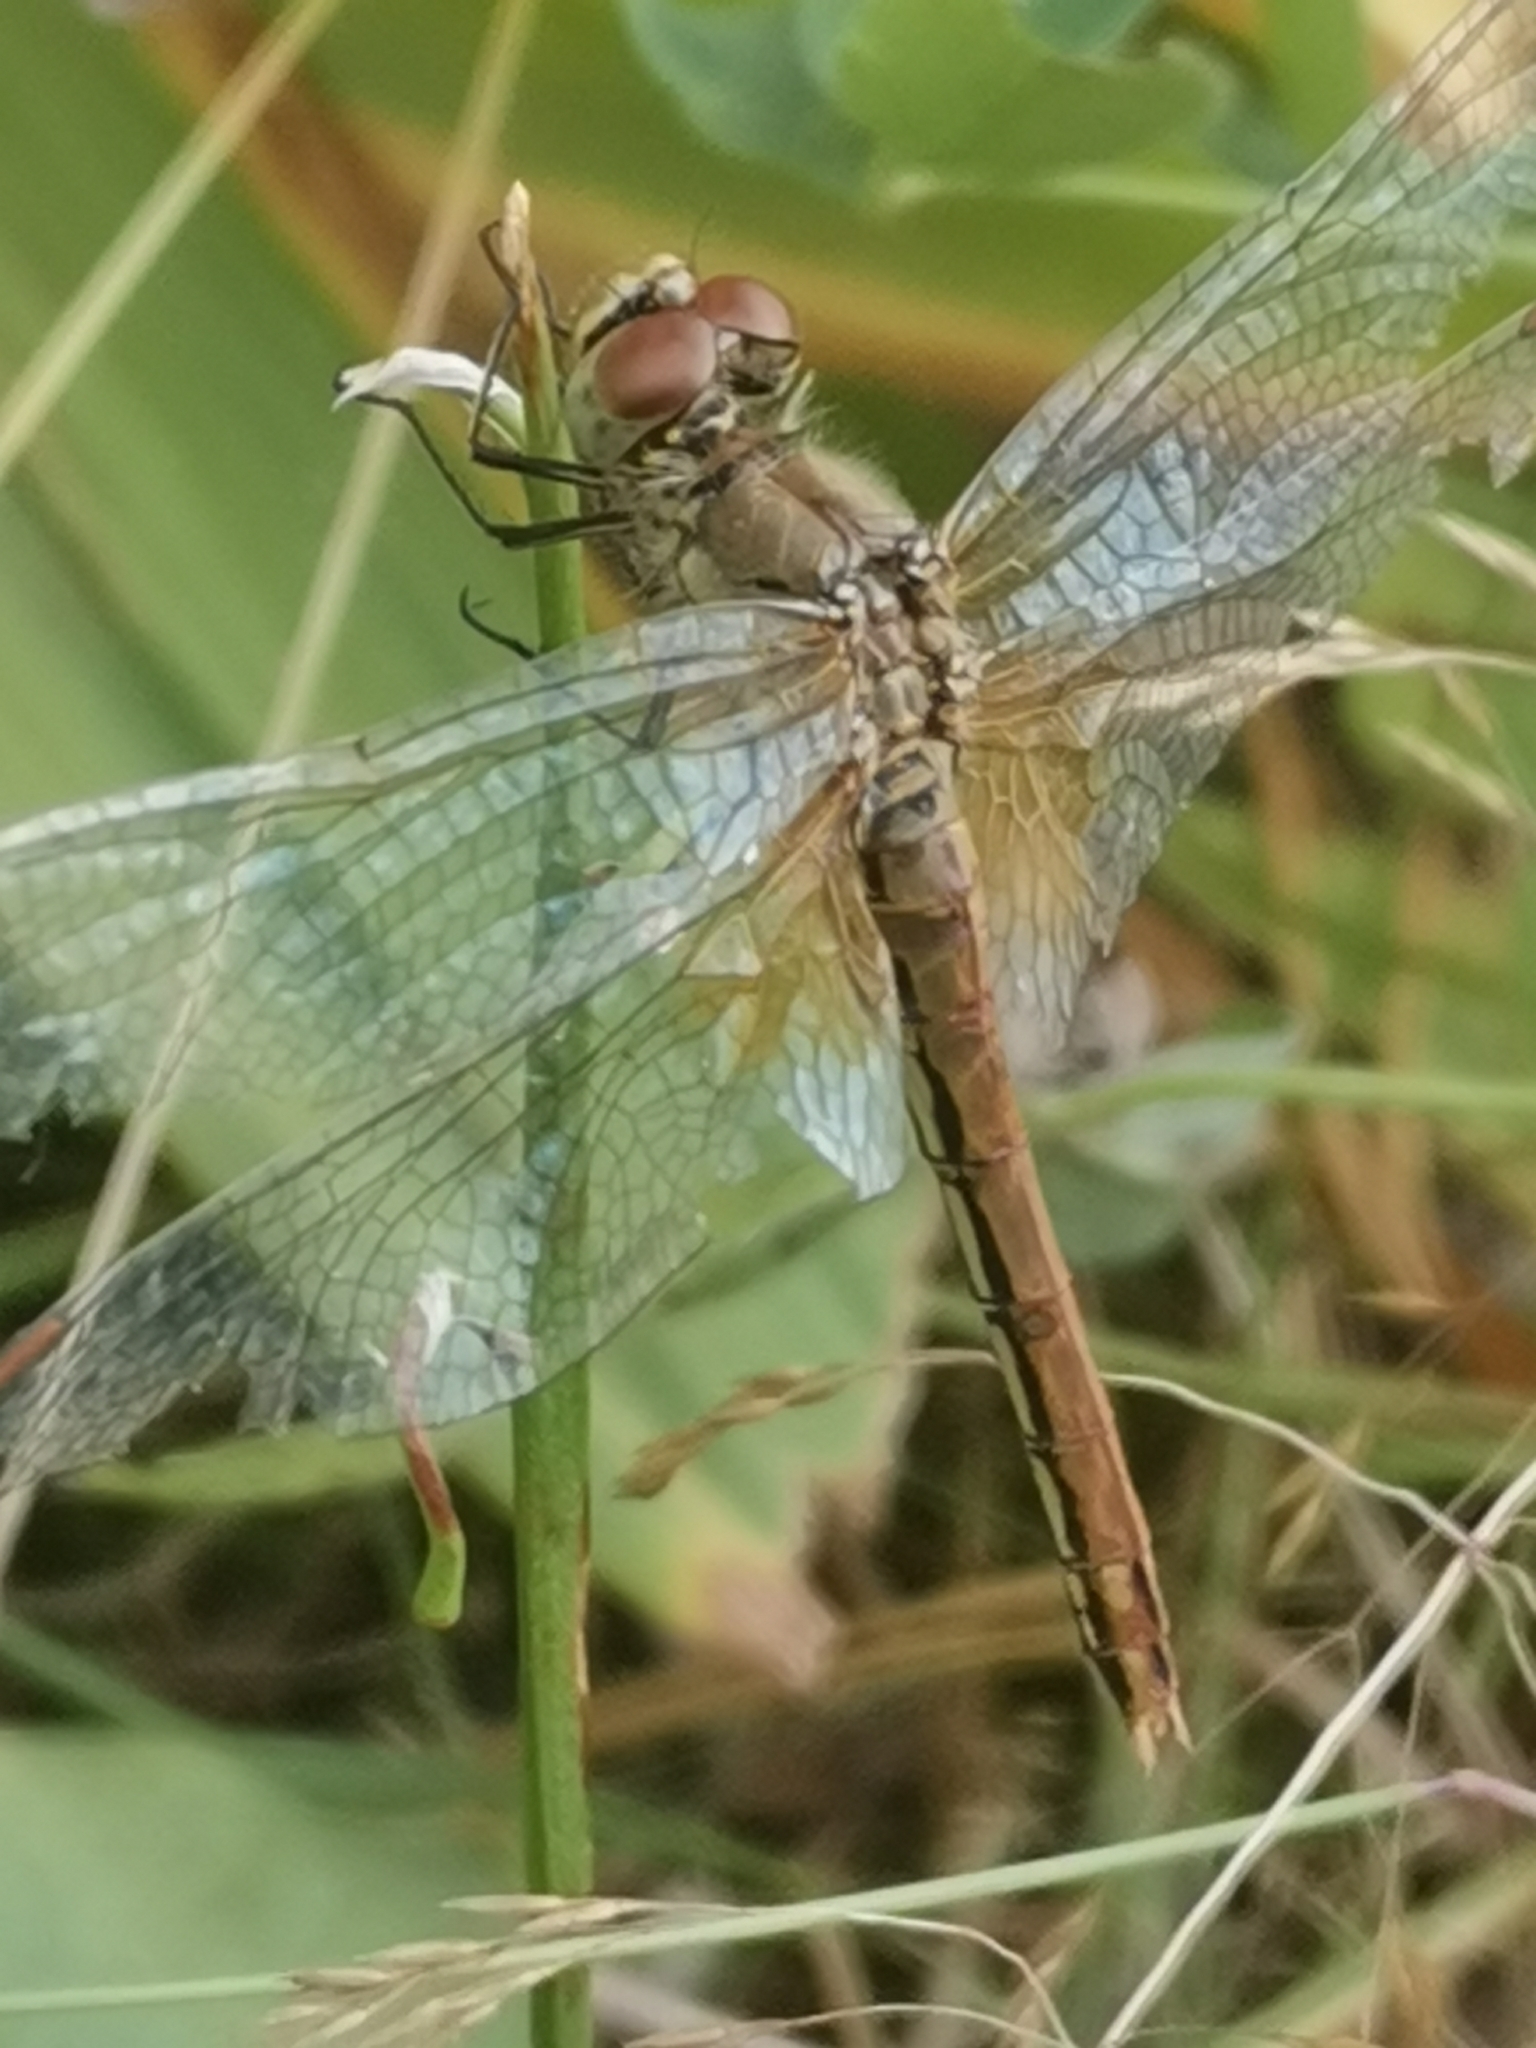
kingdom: Animalia
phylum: Arthropoda
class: Insecta
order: Odonata
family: Libellulidae
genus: Sympetrum
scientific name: Sympetrum flaveolum
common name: Yellow-winged darter
